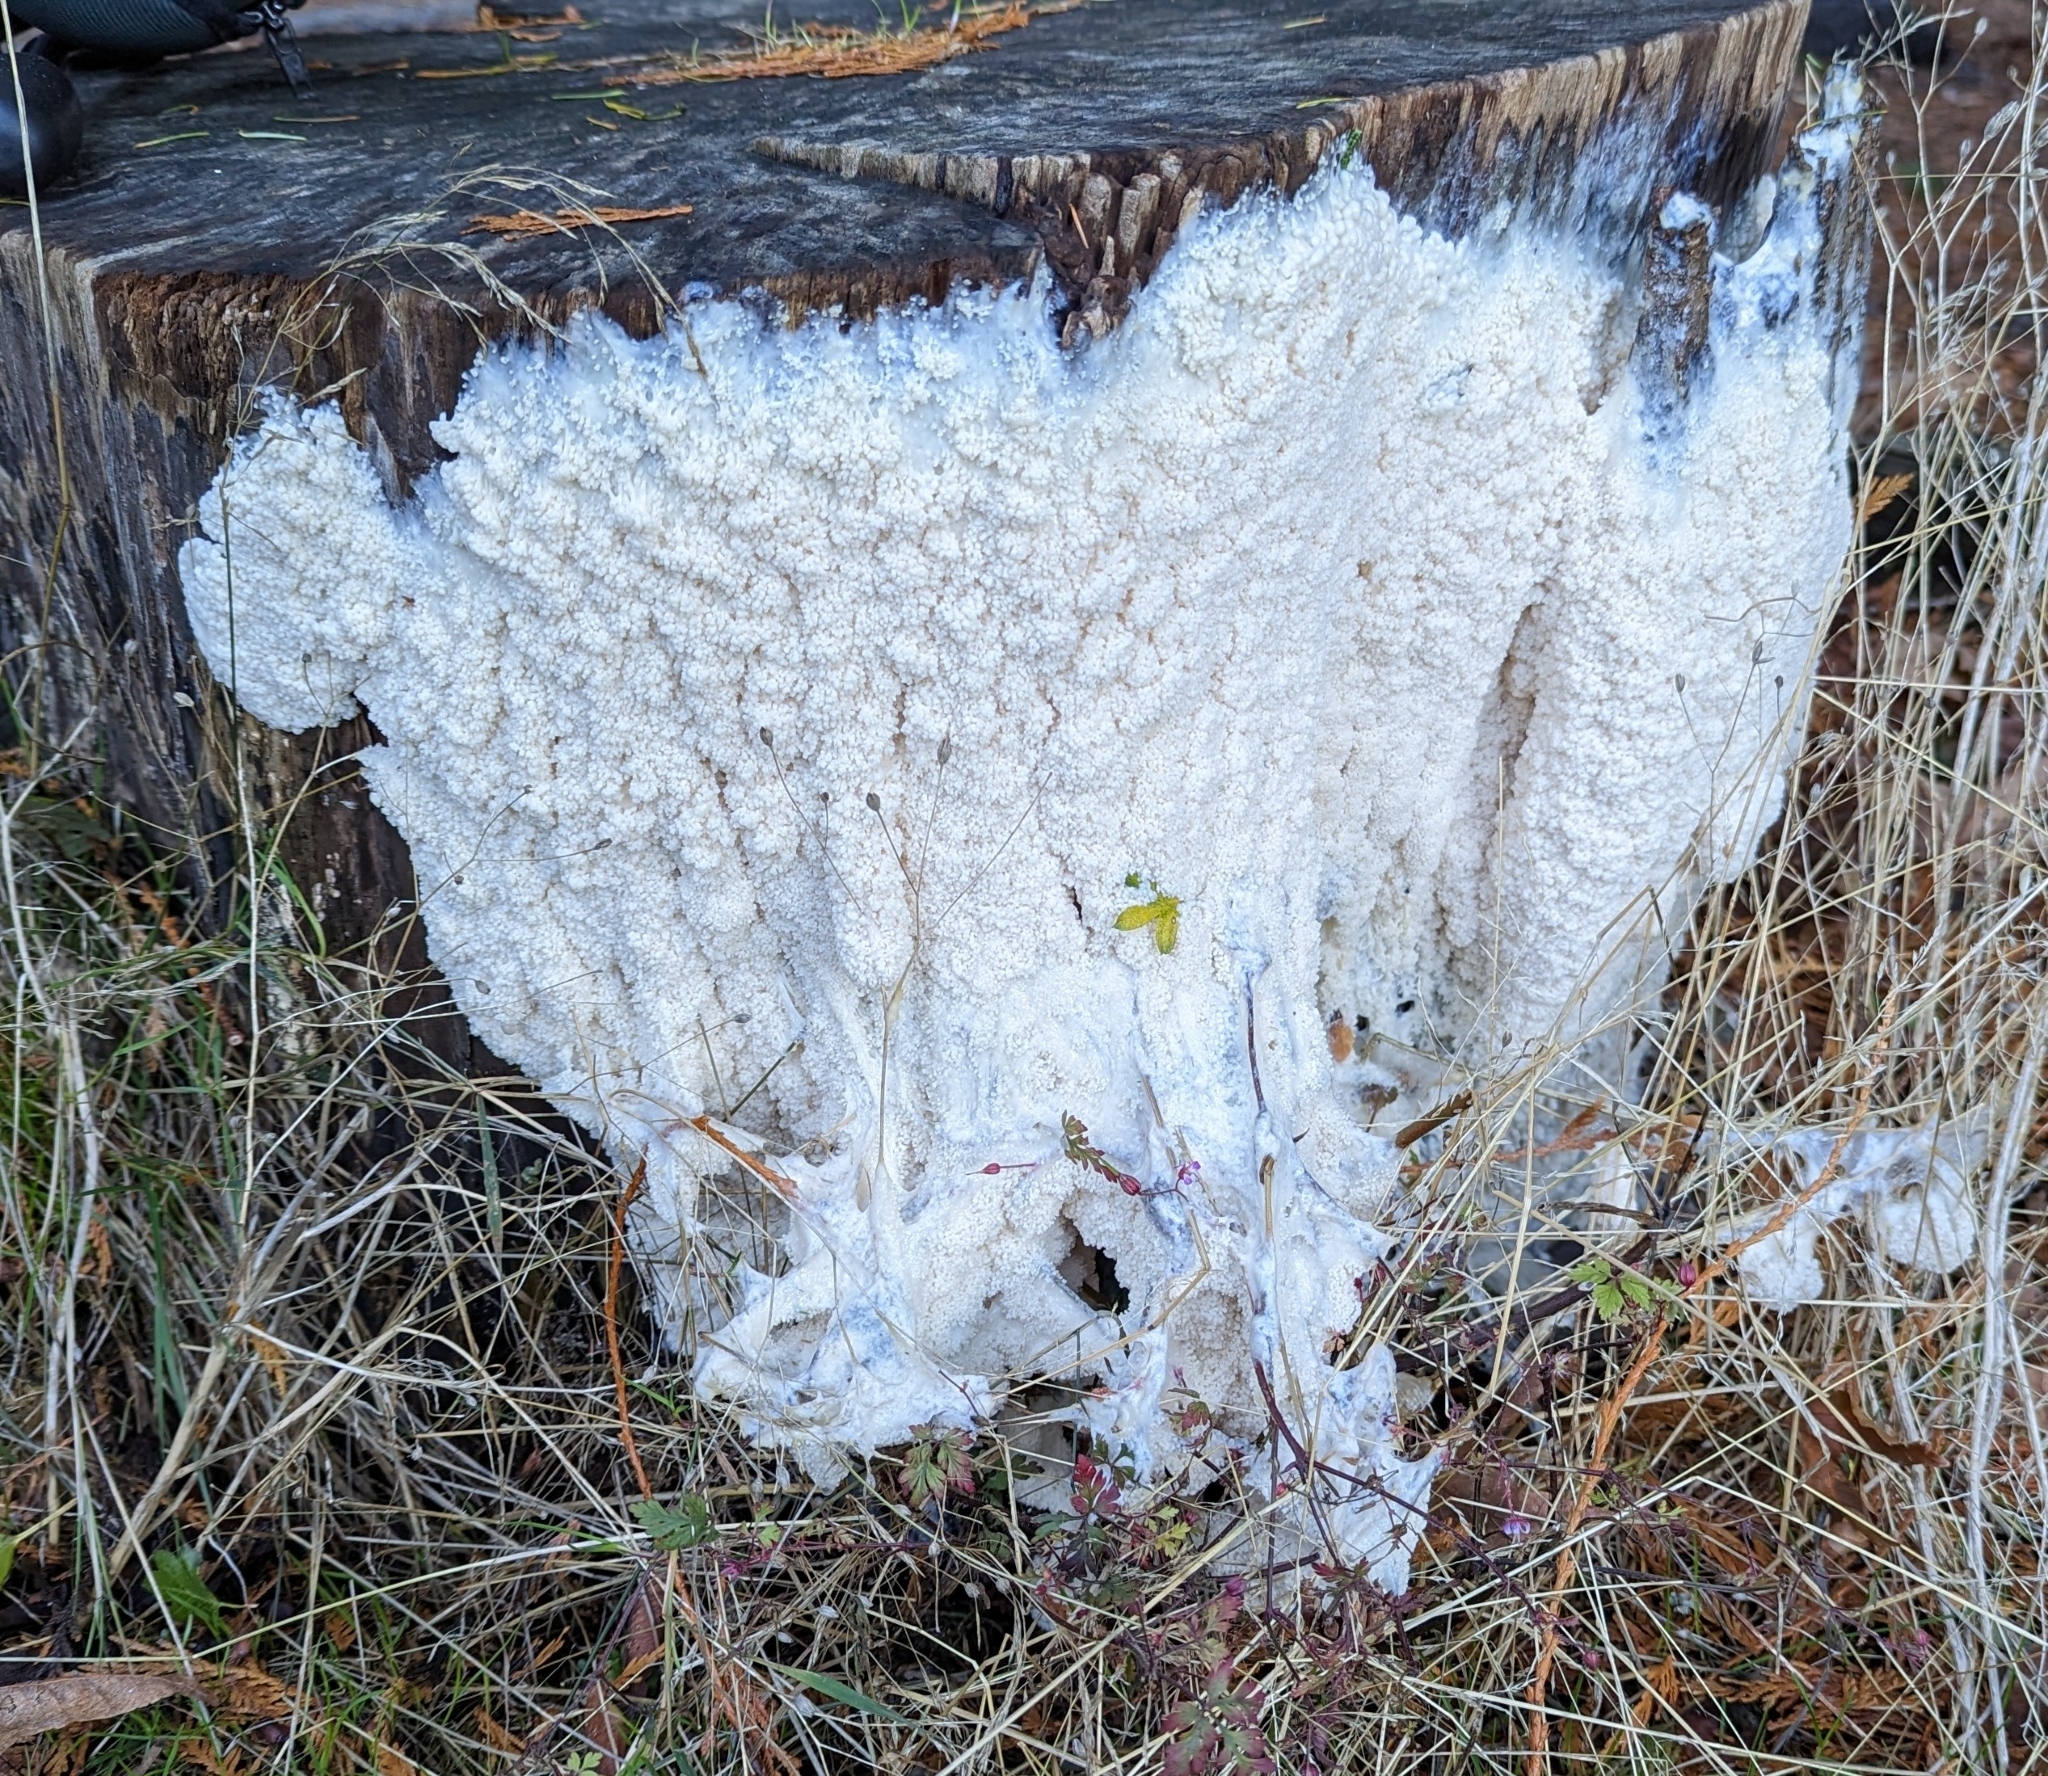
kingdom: Protozoa
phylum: Mycetozoa
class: Myxomycetes
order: Stemonitidales
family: Stemonitidaceae
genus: Brefeldia
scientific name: Brefeldia maxima
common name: Tapioca slime mold
